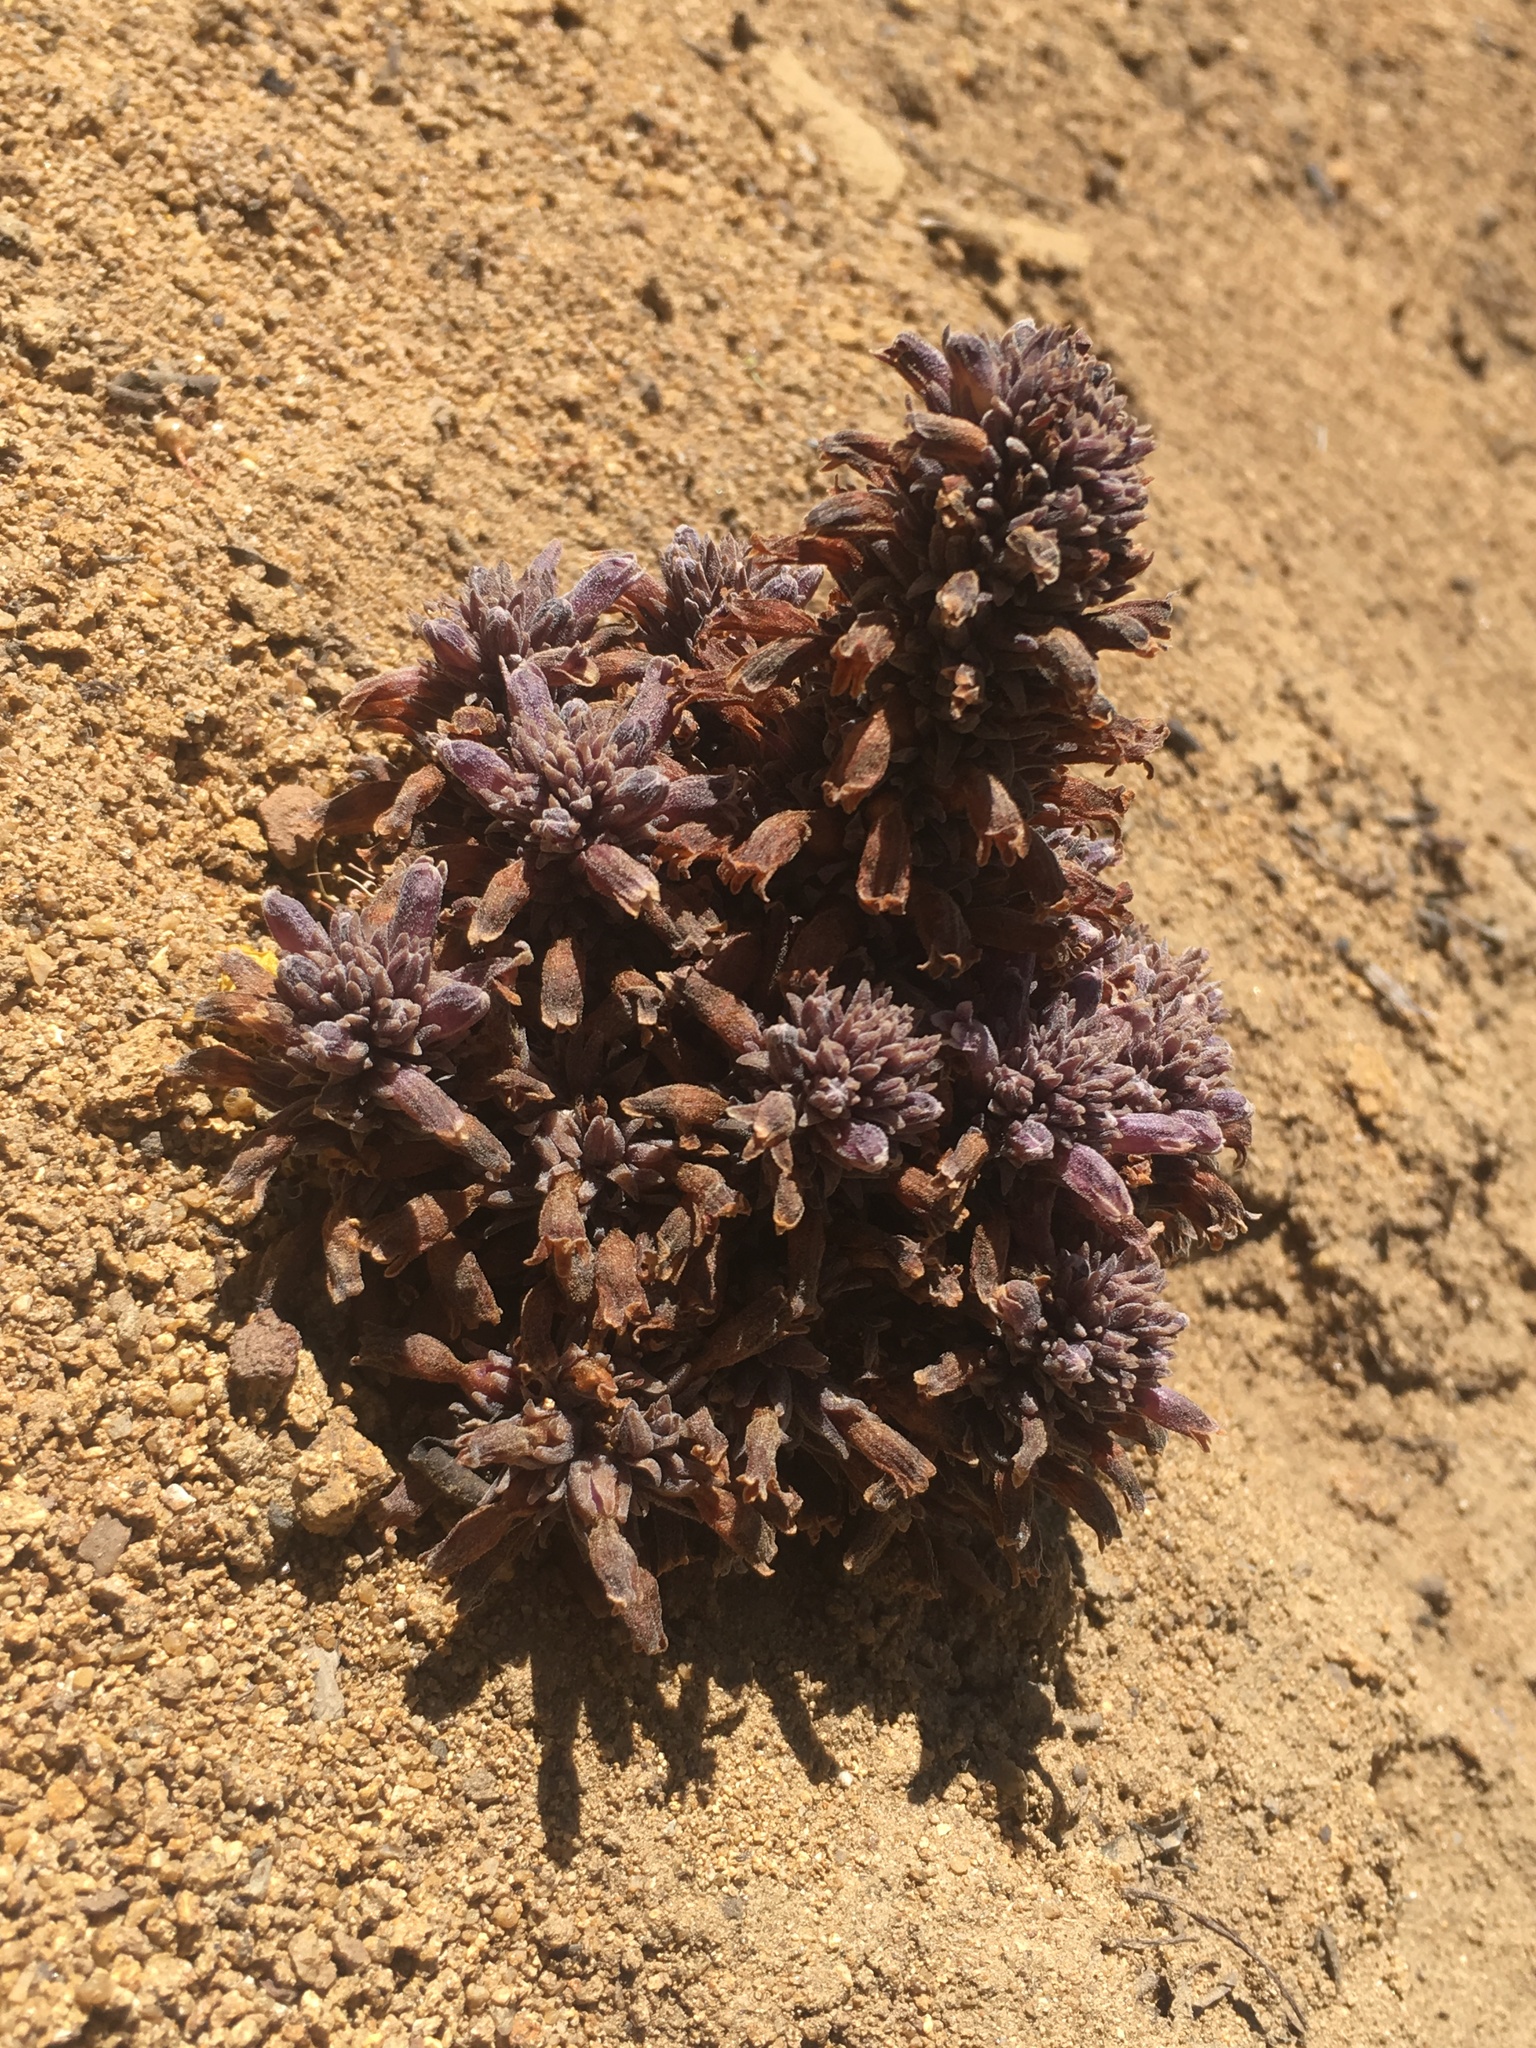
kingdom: Plantae
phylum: Tracheophyta
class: Magnoliopsida
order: Lamiales
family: Orobanchaceae
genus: Aphyllon
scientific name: Aphyllon tuberosum
